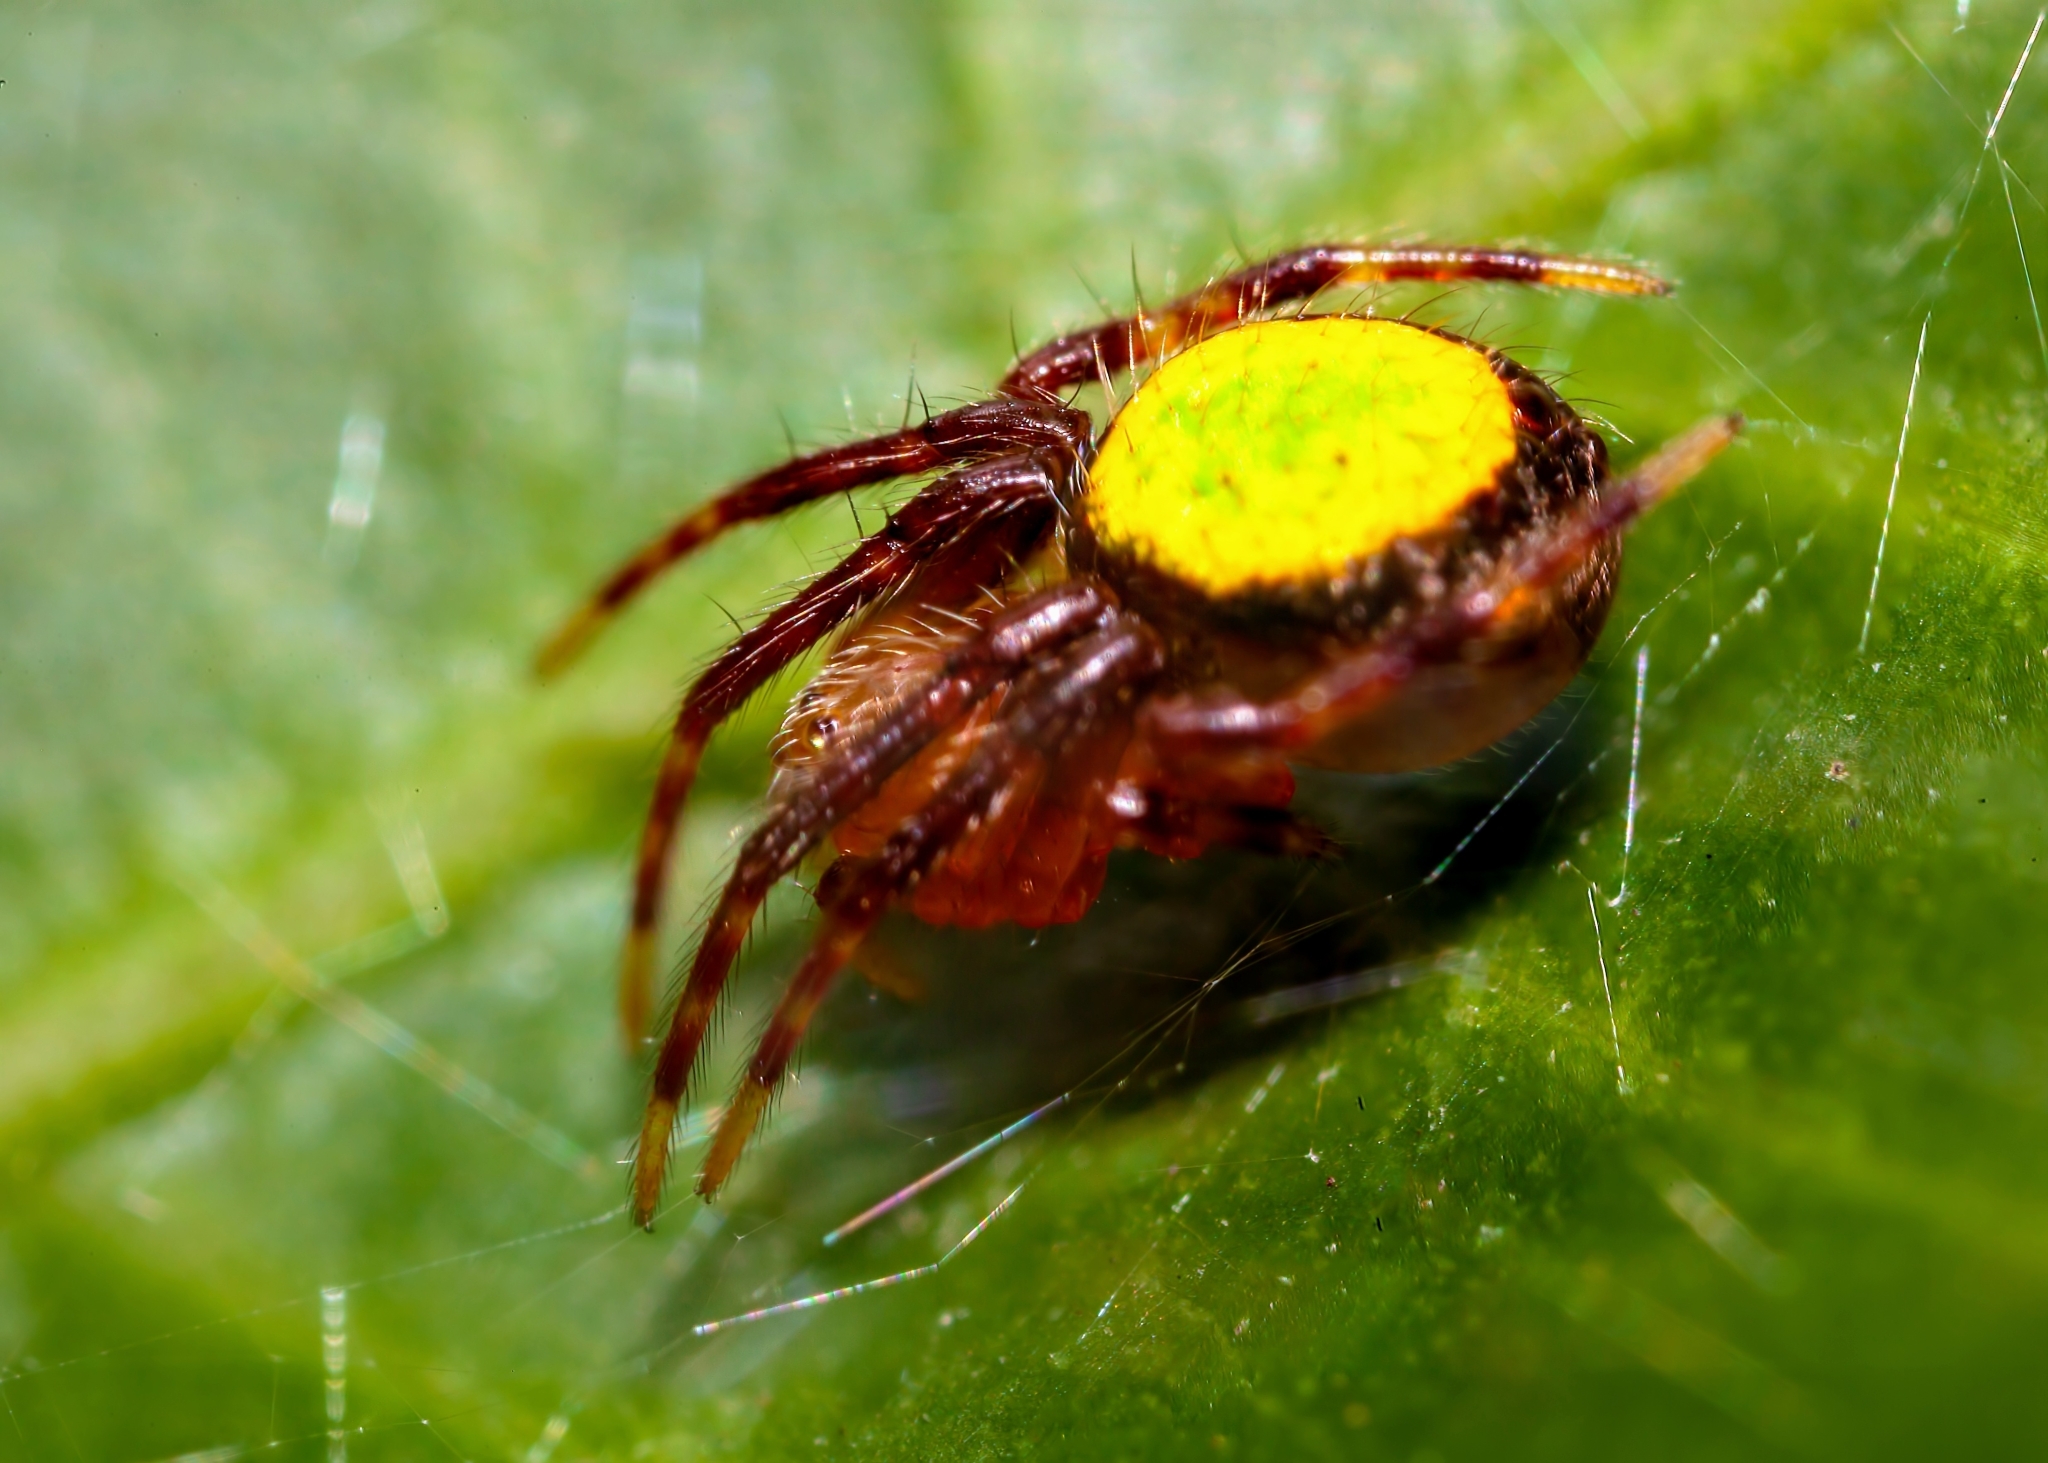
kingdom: Animalia
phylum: Arthropoda
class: Arachnida
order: Araneae
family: Araneidae
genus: Eriophora
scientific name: Eriophora ravilla
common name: Orb weavers
